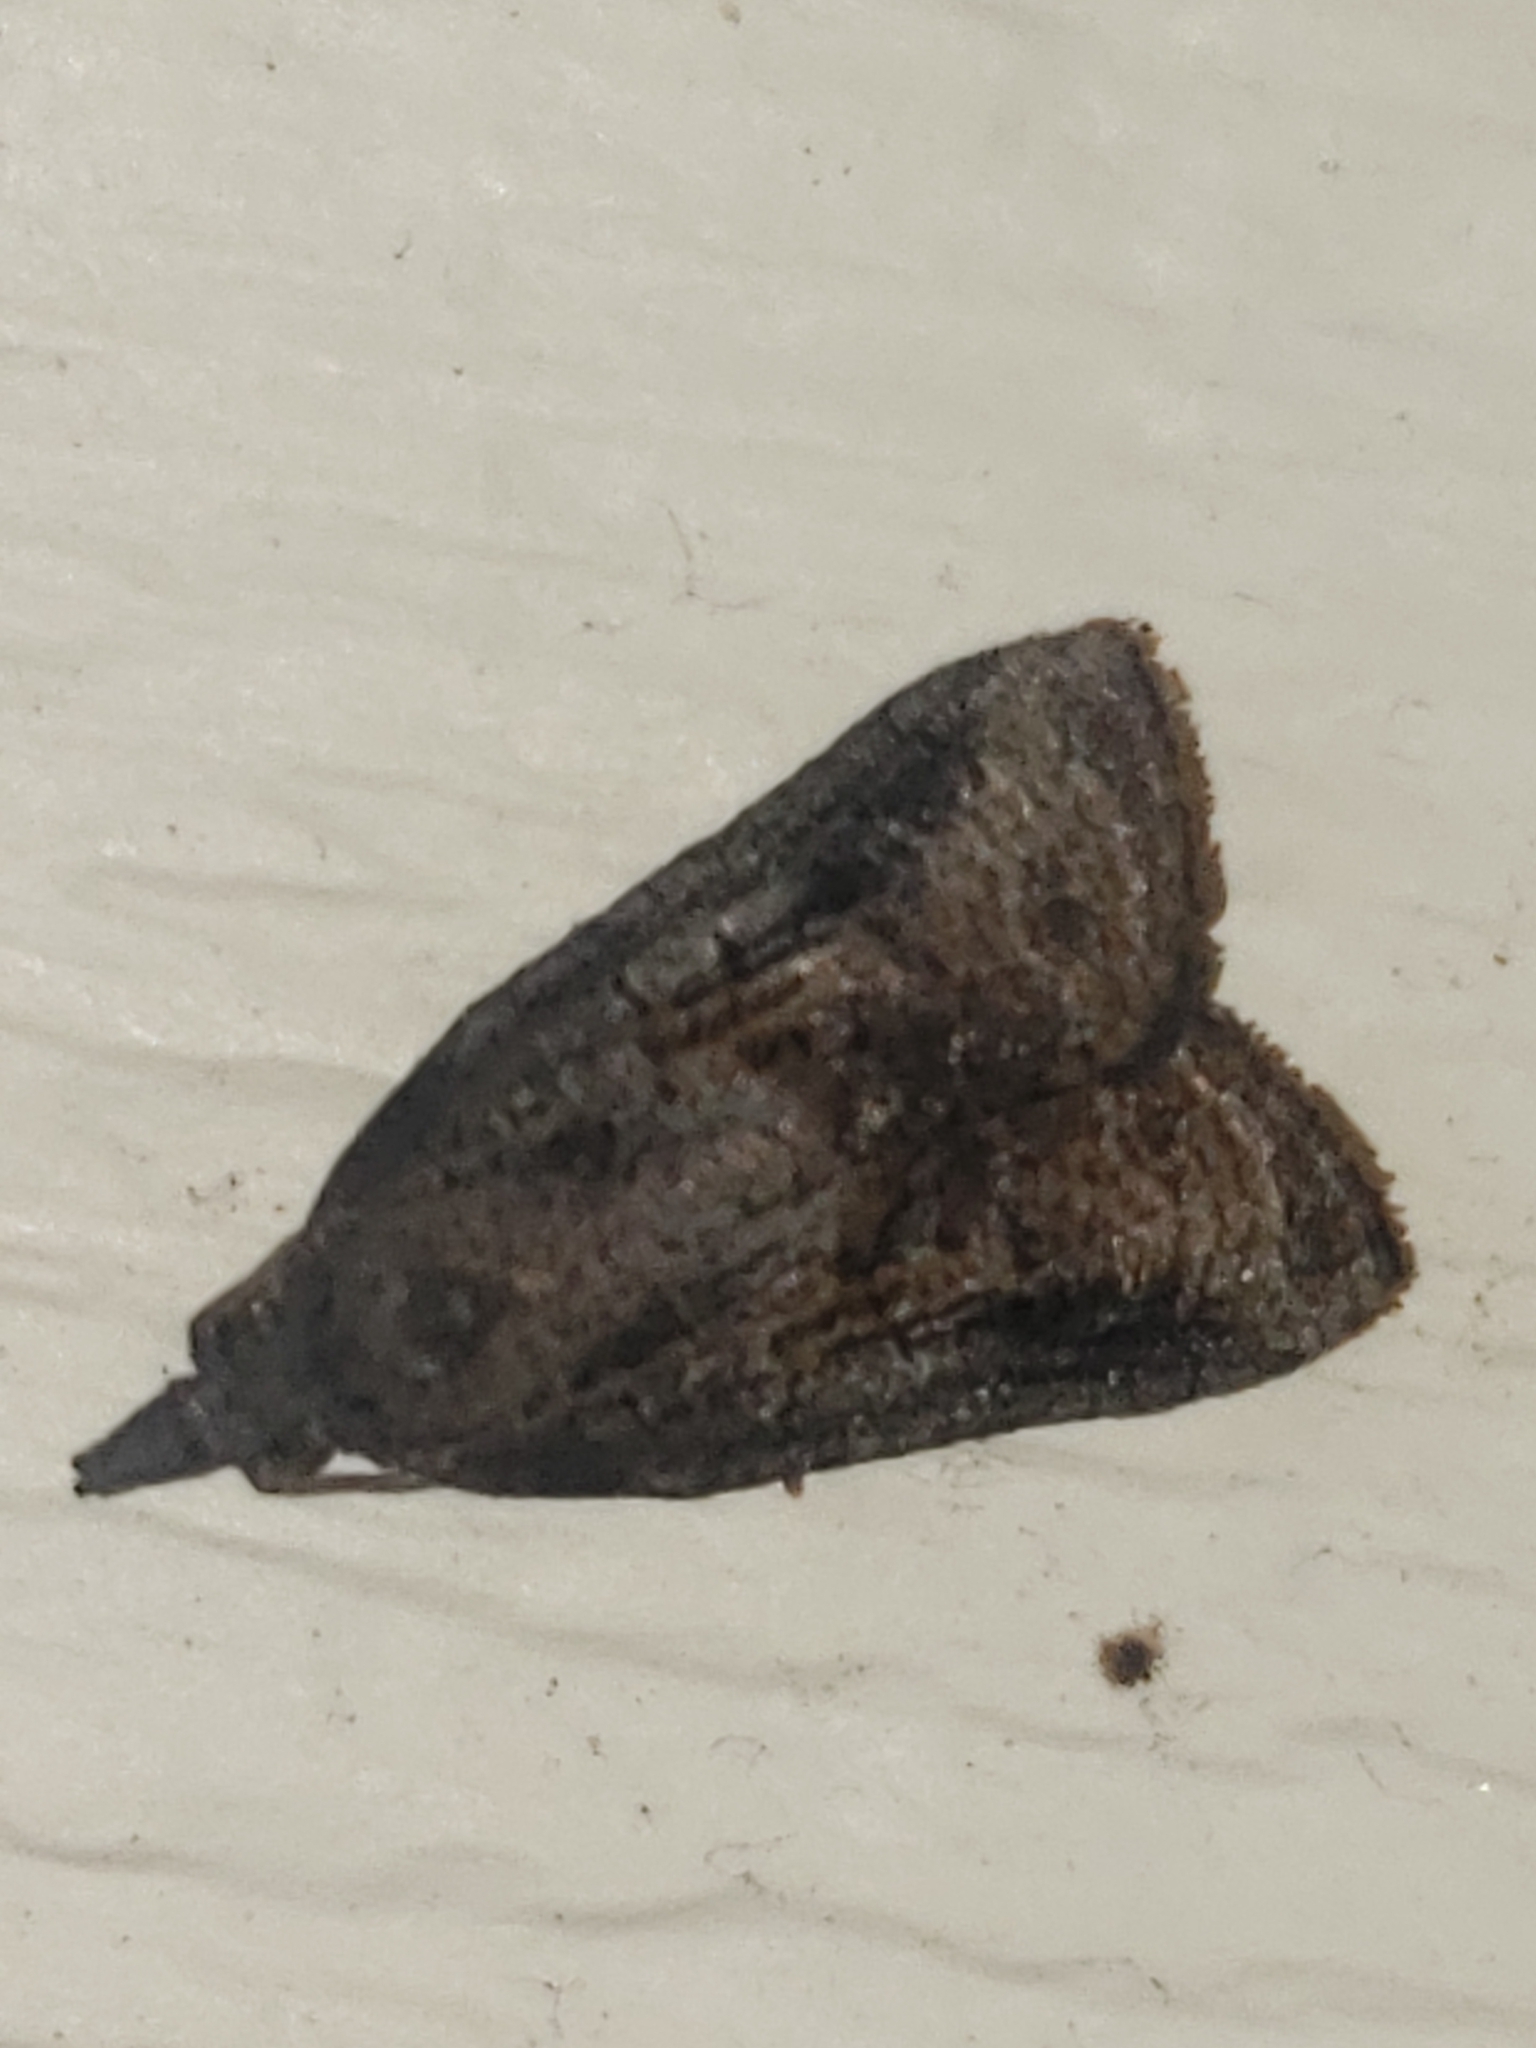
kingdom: Animalia
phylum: Arthropoda
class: Insecta
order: Lepidoptera
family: Tortricidae
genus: Platynota
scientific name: Platynota idaeusalis
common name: Tufted apple bud moth
